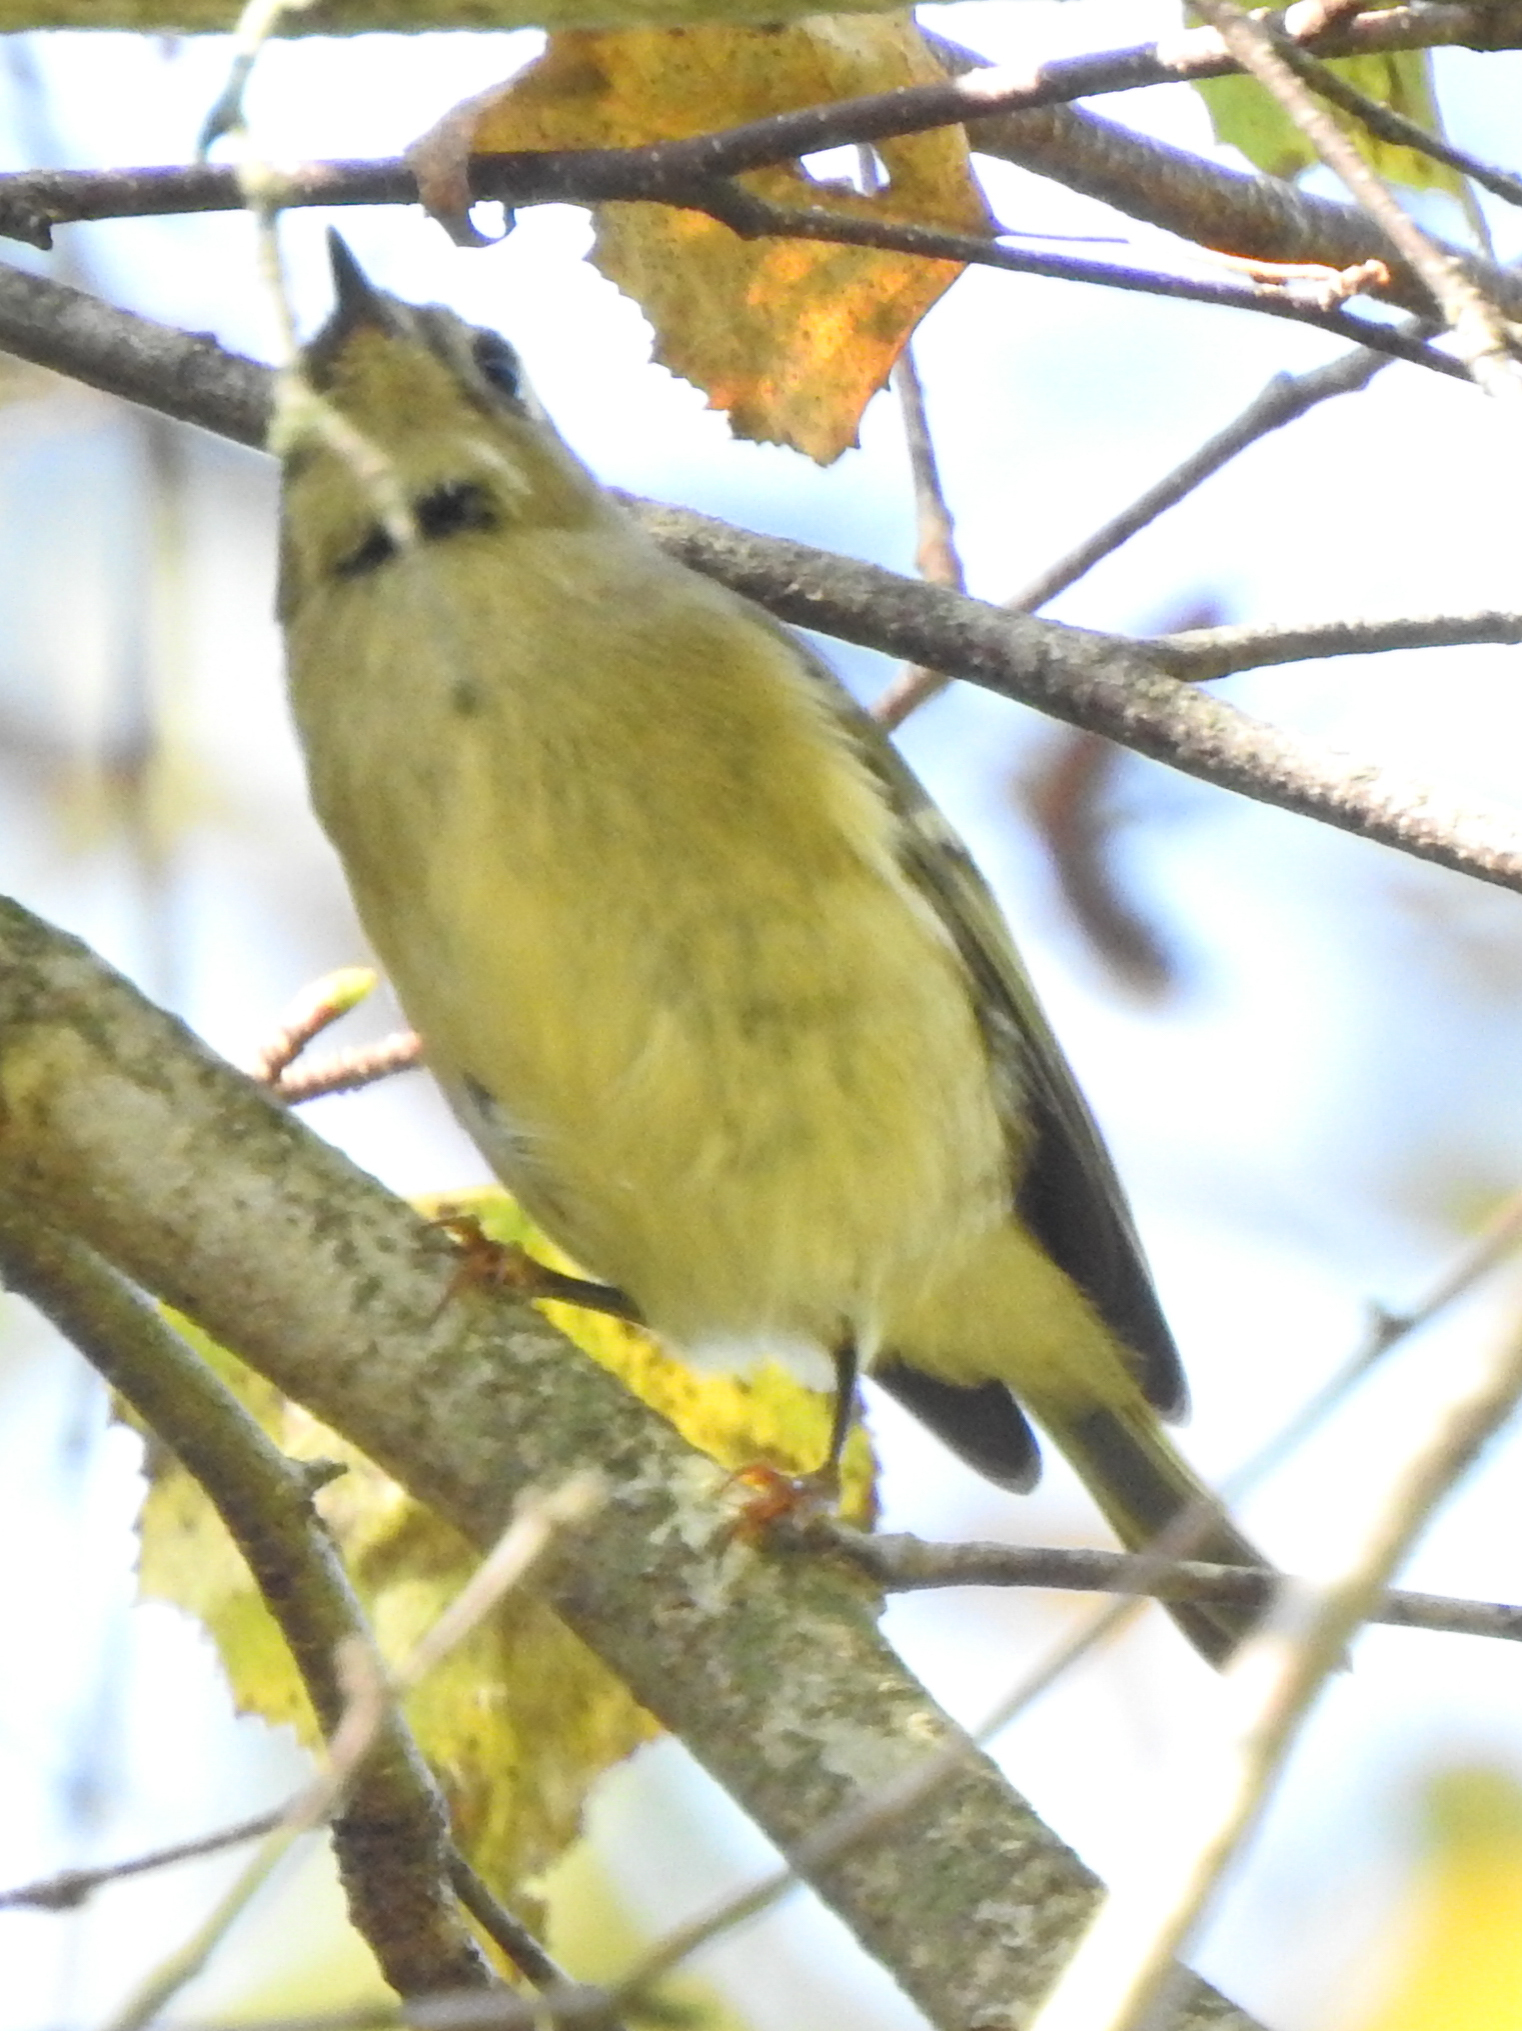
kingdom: Animalia
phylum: Chordata
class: Aves
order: Passeriformes
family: Regulidae
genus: Regulus
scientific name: Regulus calendula
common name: Ruby-crowned kinglet
